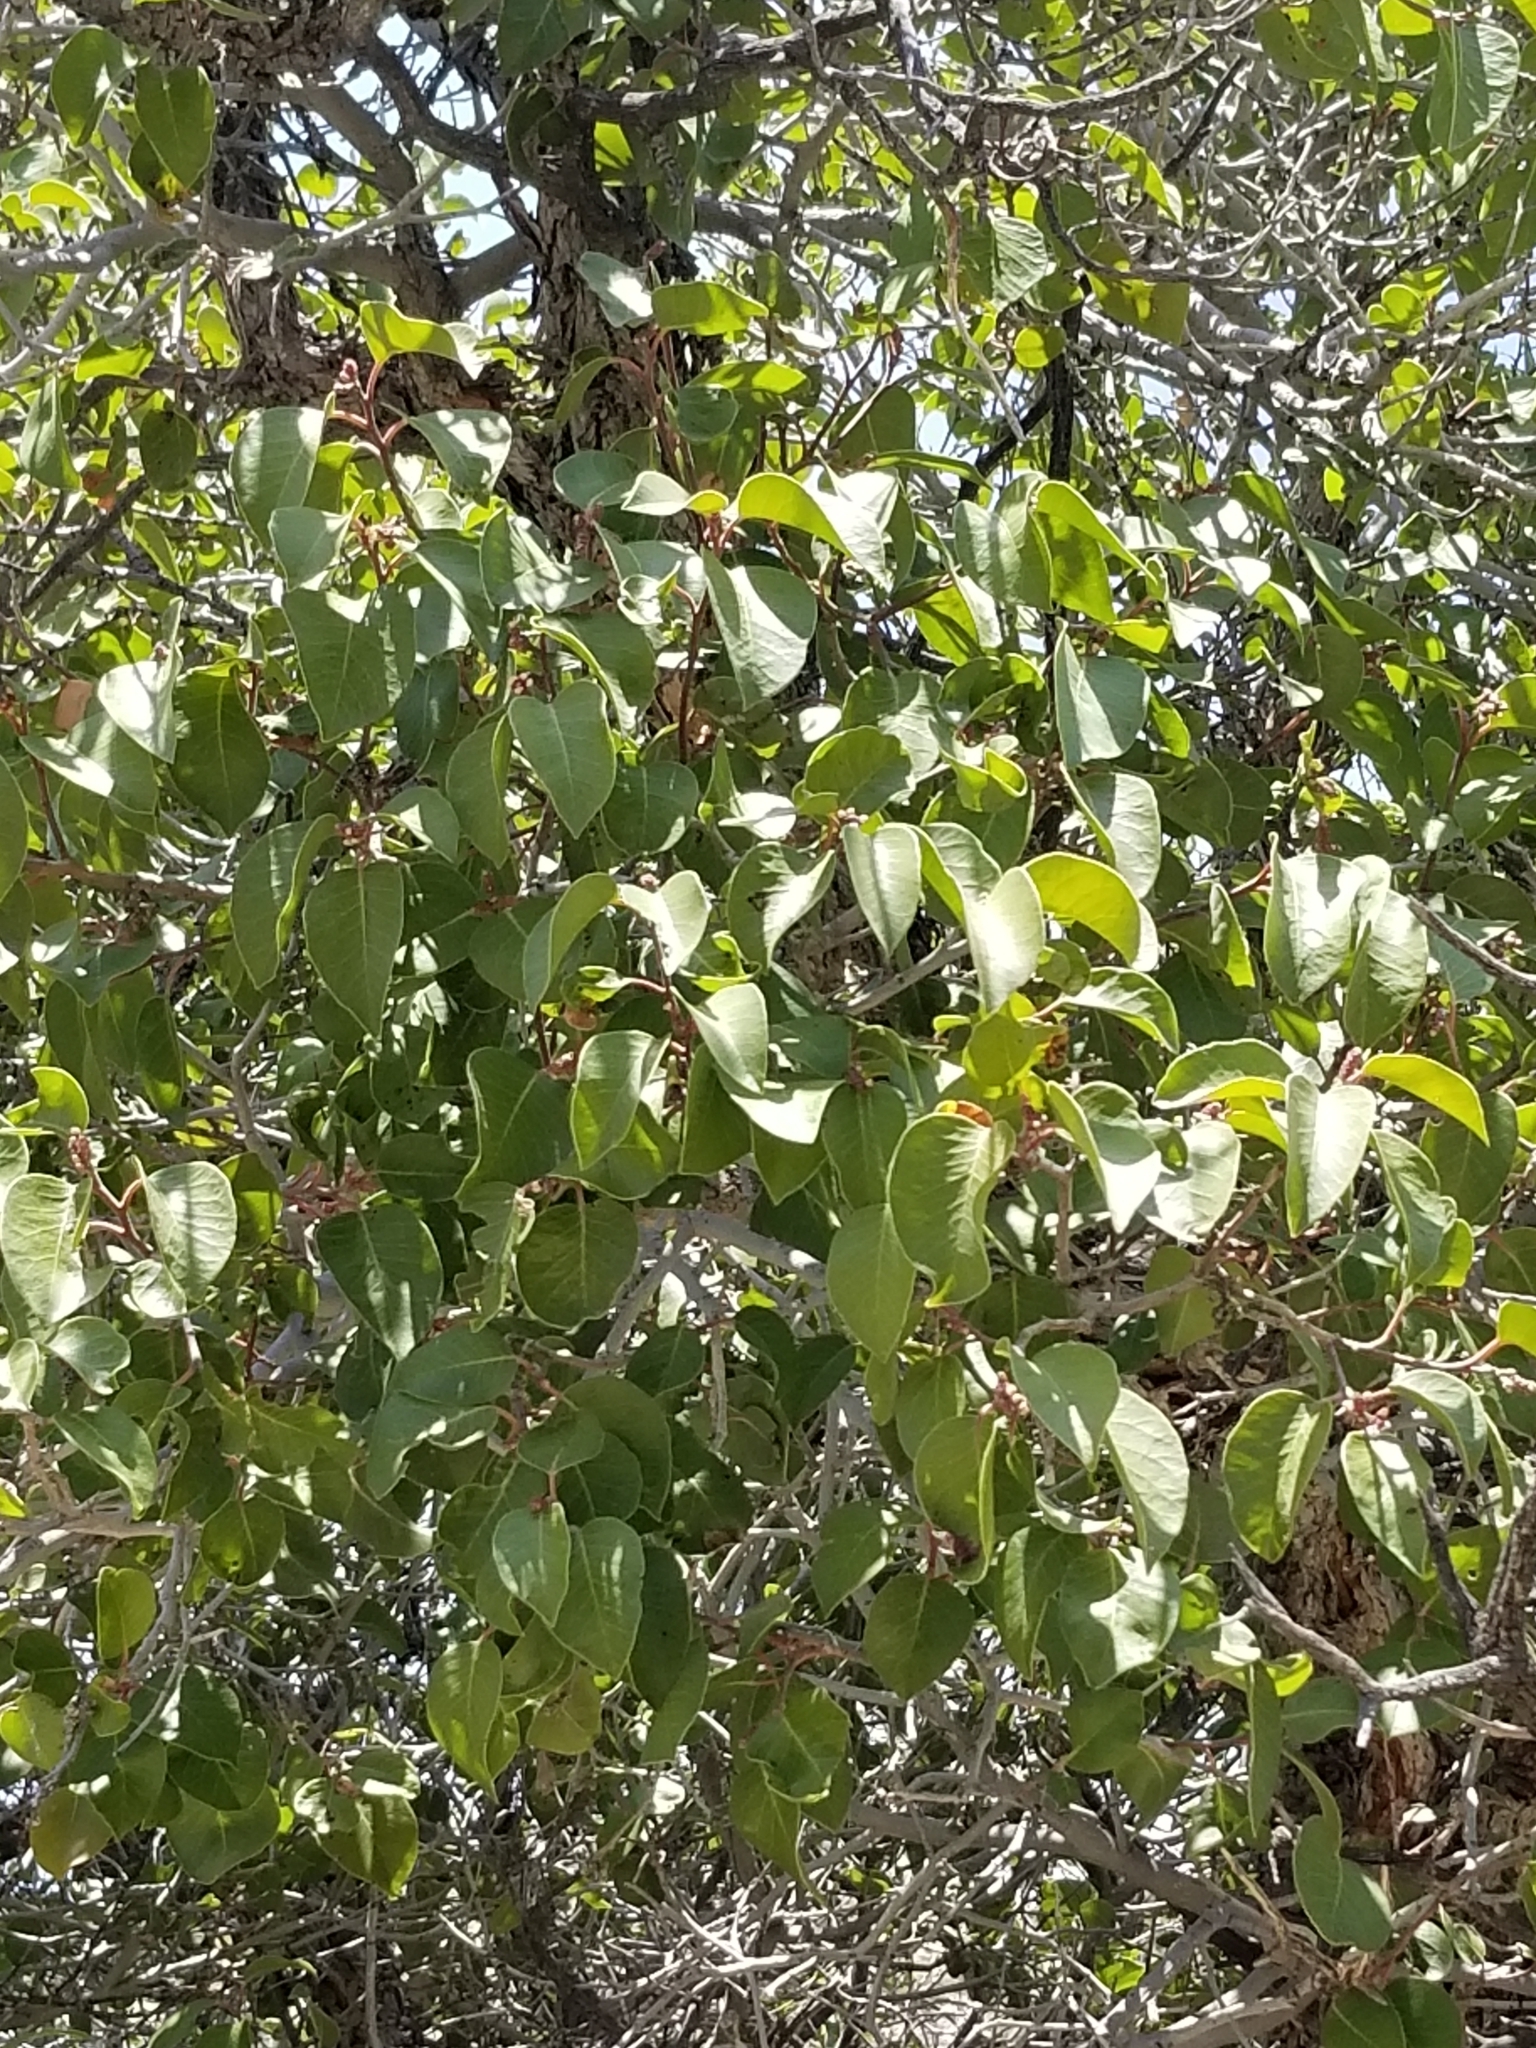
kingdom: Plantae
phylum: Tracheophyta
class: Magnoliopsida
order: Sapindales
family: Anacardiaceae
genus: Rhus
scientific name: Rhus ovata
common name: Sugar sumac
